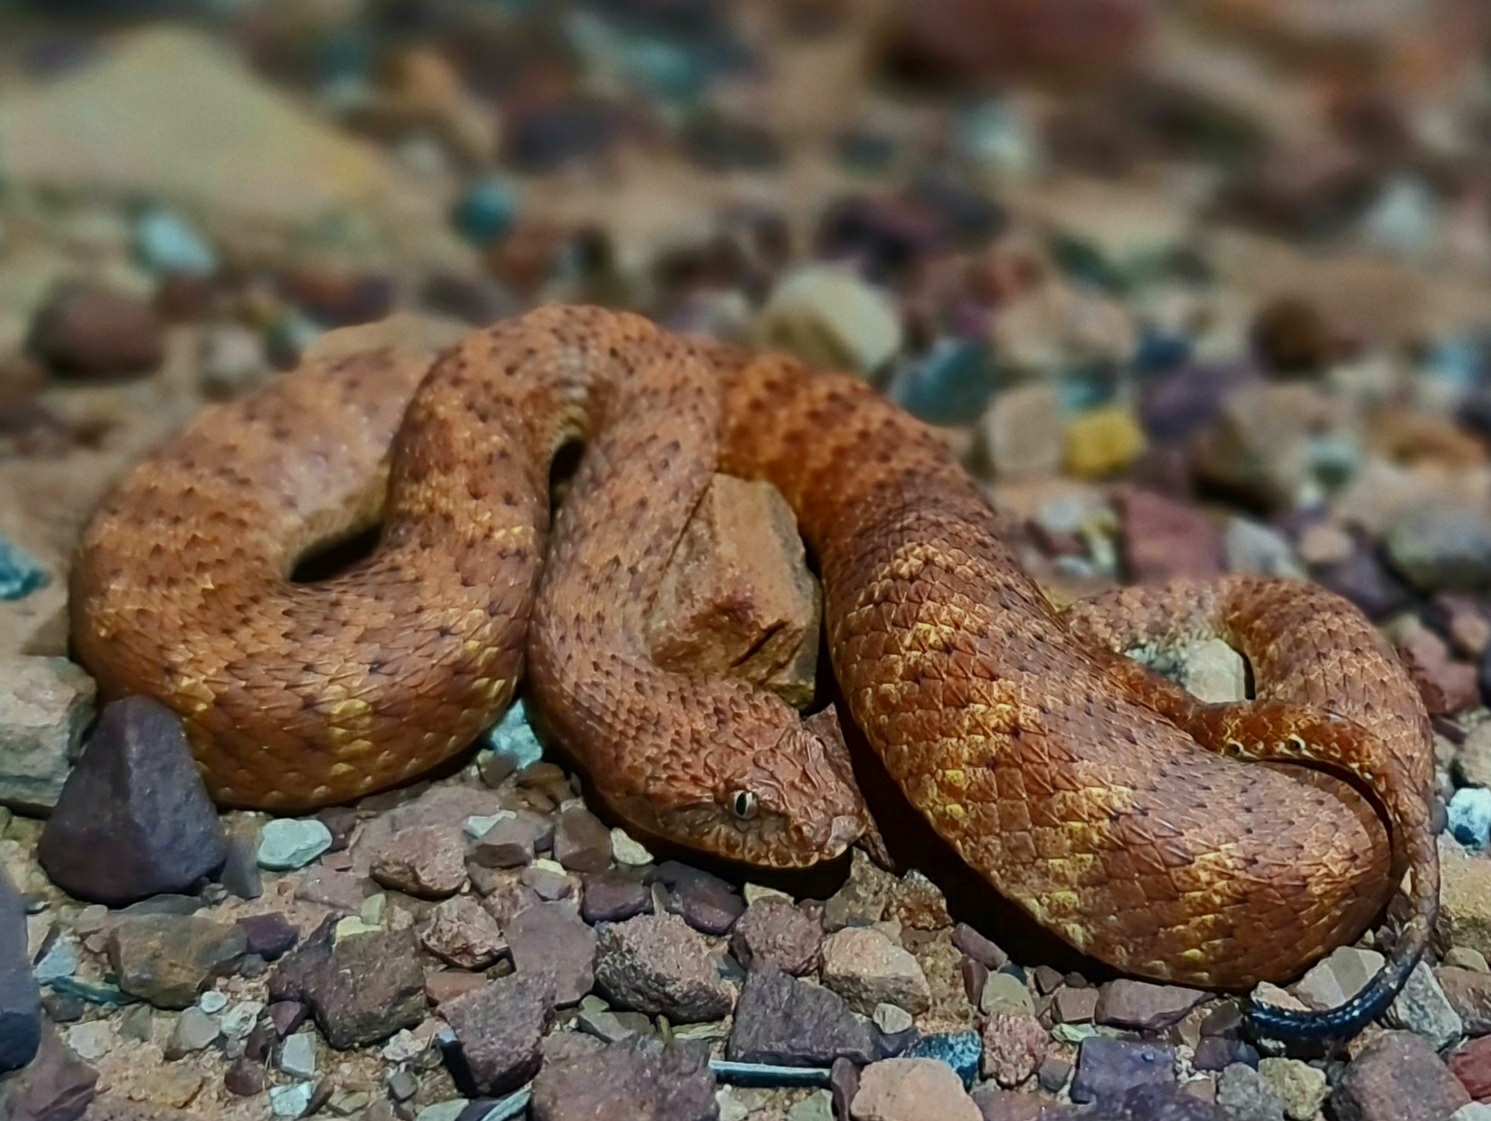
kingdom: Animalia
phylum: Chordata
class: Squamata
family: Elapidae
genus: Acanthophis
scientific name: Acanthophis pyrrhus
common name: Desert death adder
